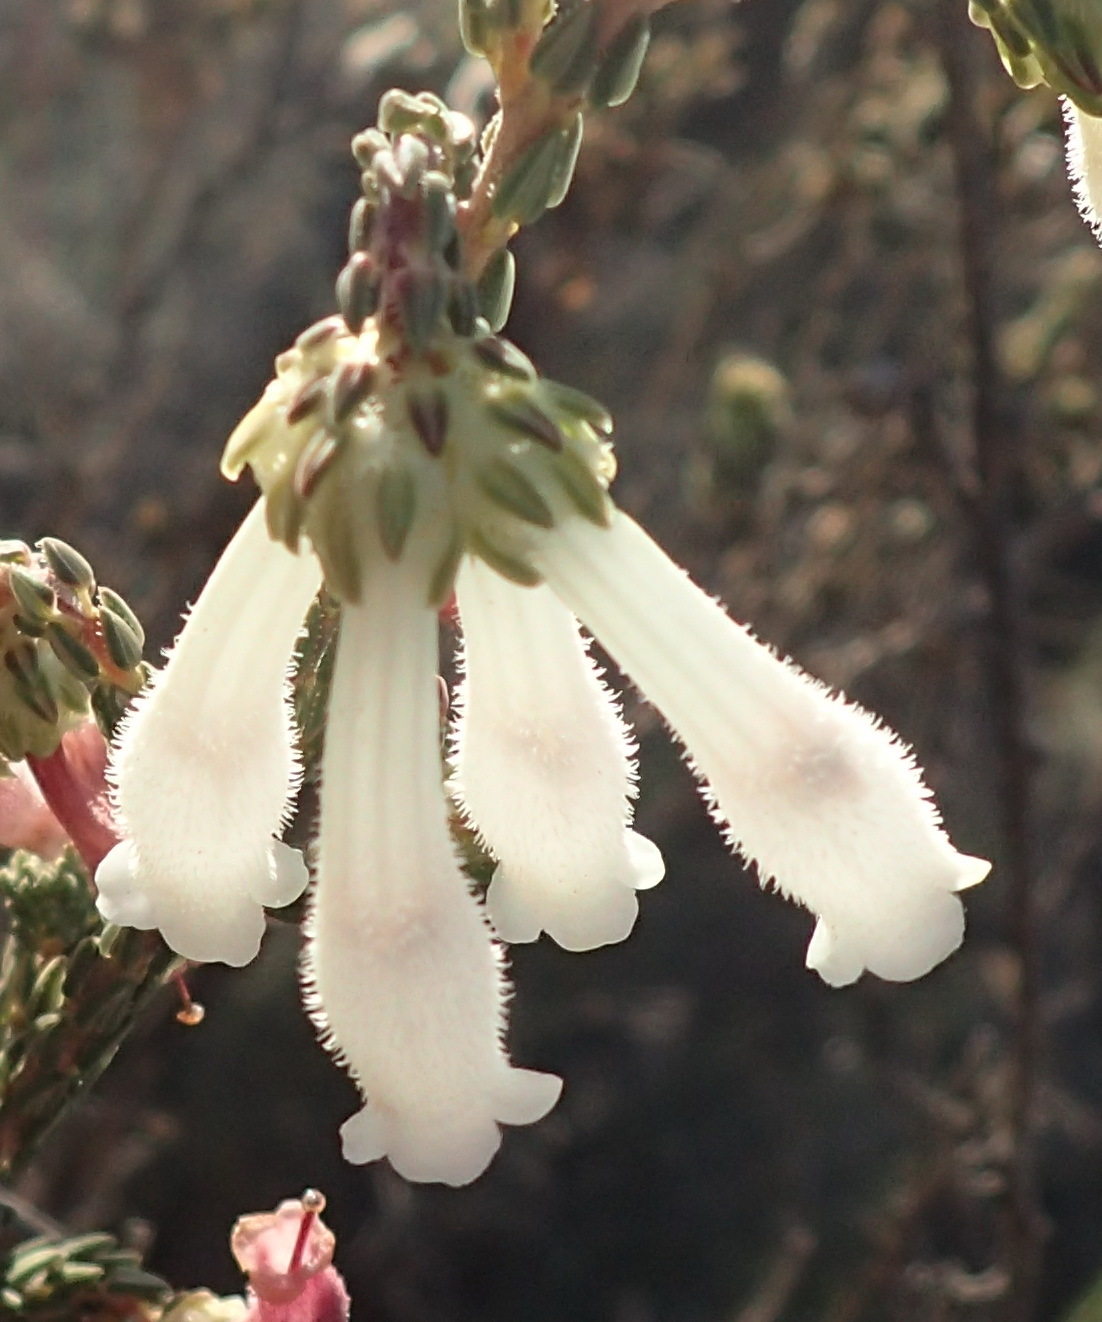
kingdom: Plantae
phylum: Tracheophyta
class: Magnoliopsida
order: Ericales
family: Ericaceae
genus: Erica
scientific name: Erica pectinifolia
